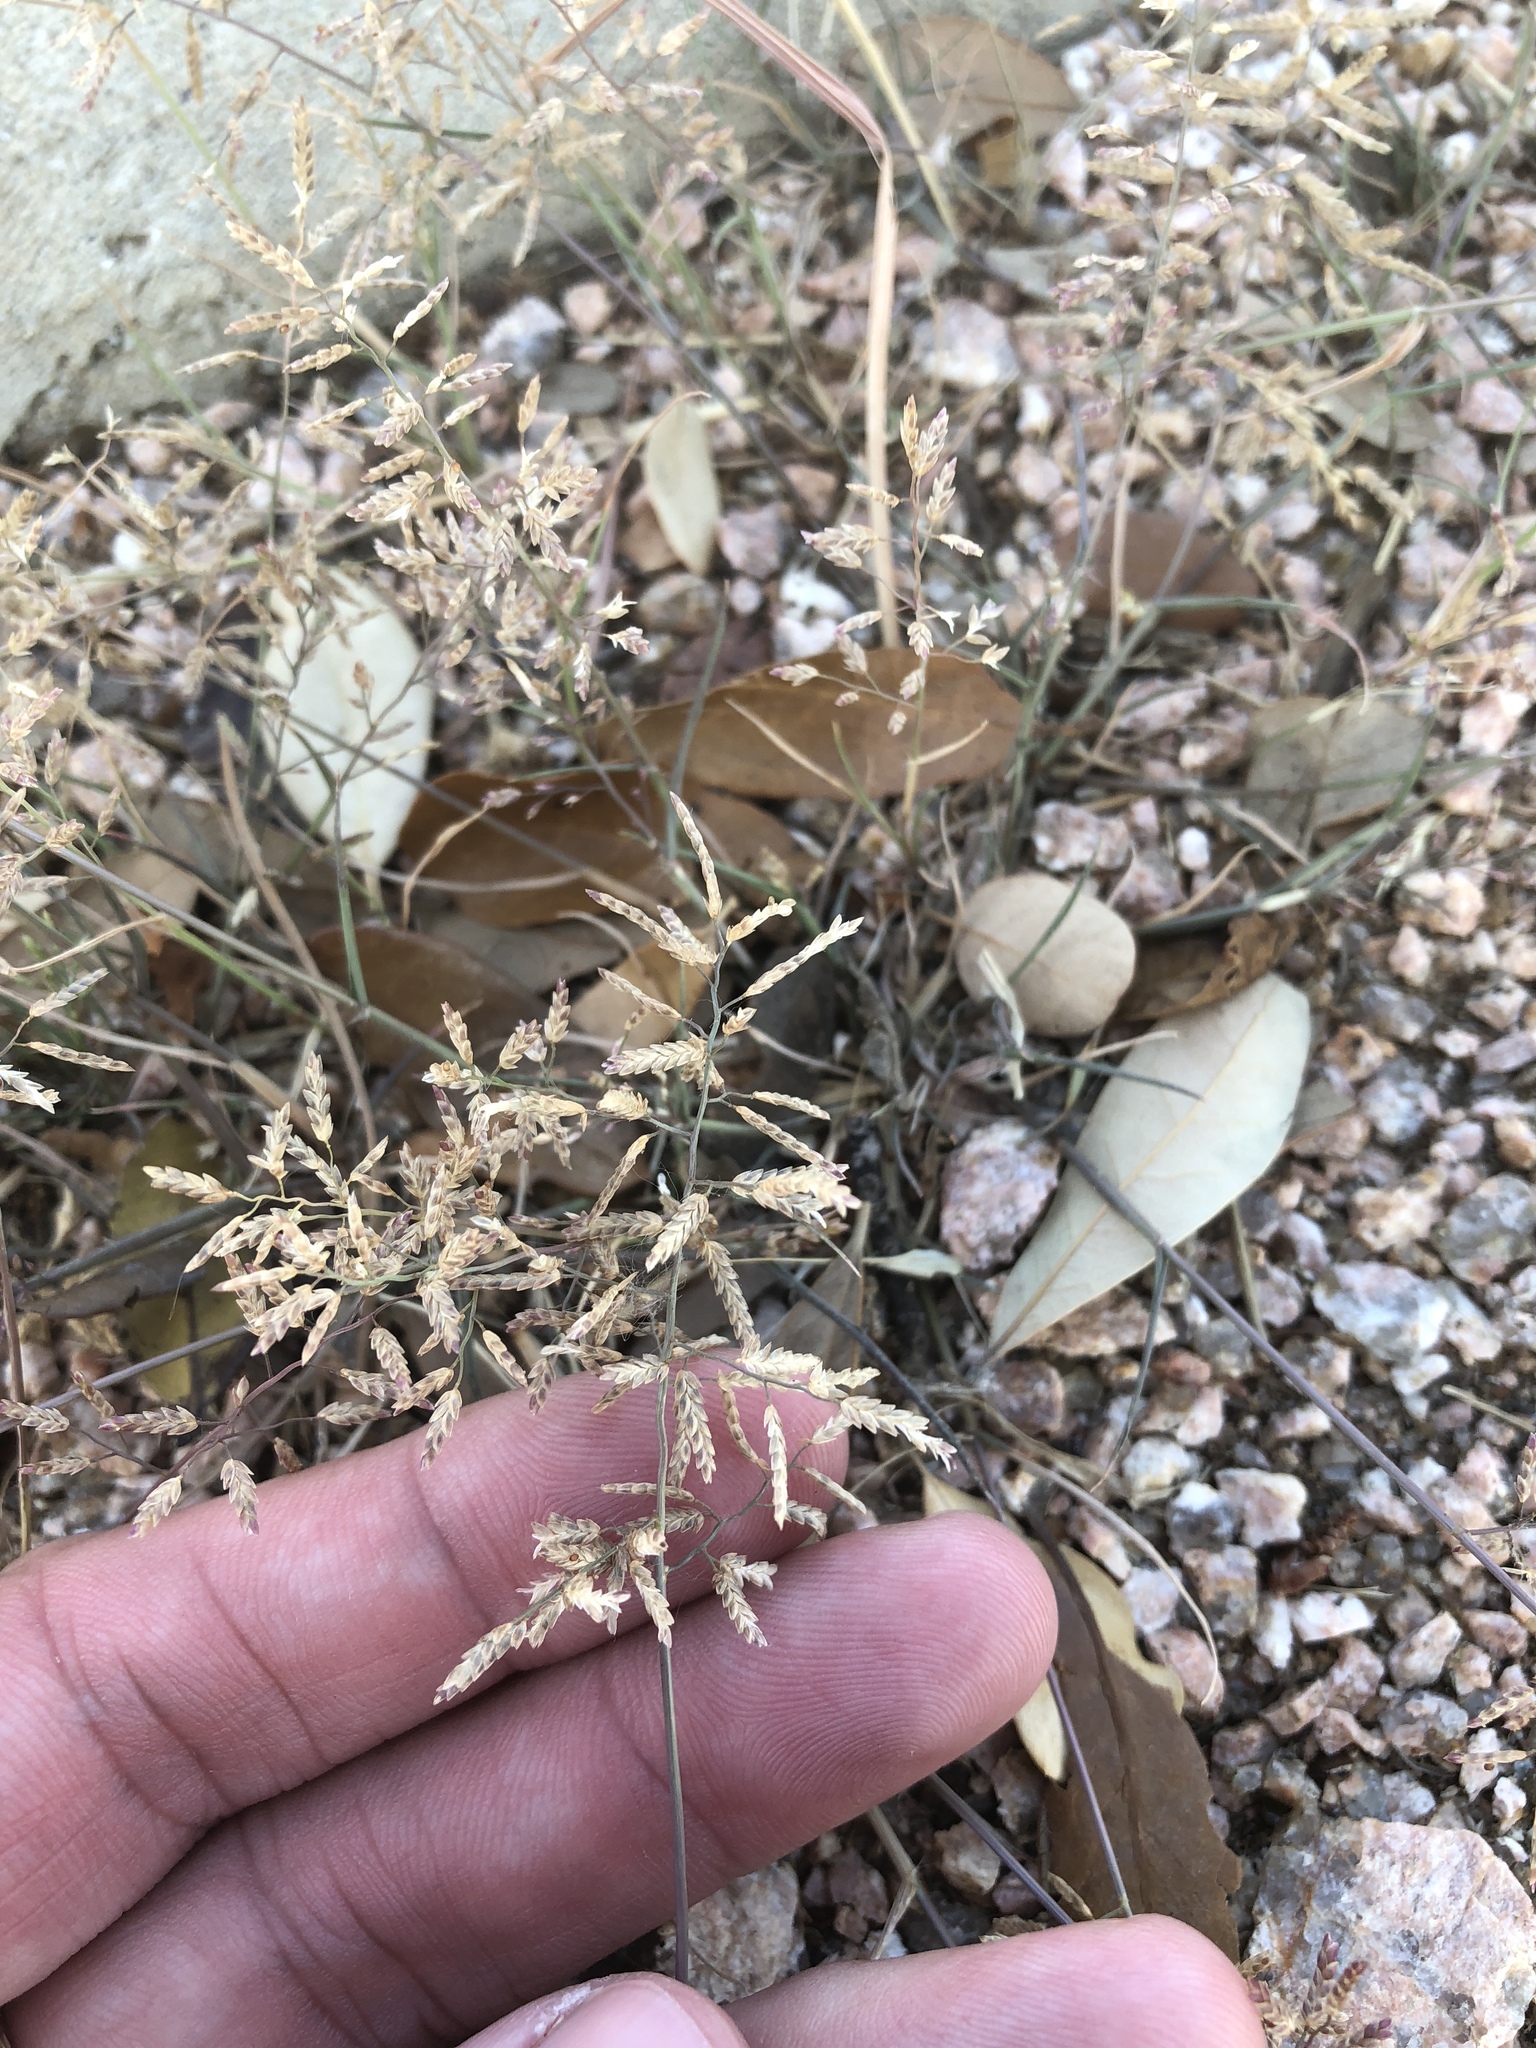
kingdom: Plantae
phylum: Tracheophyta
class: Liliopsida
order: Poales
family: Poaceae
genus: Eragrostis
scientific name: Eragrostis cilianensis
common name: Stinkgrass
